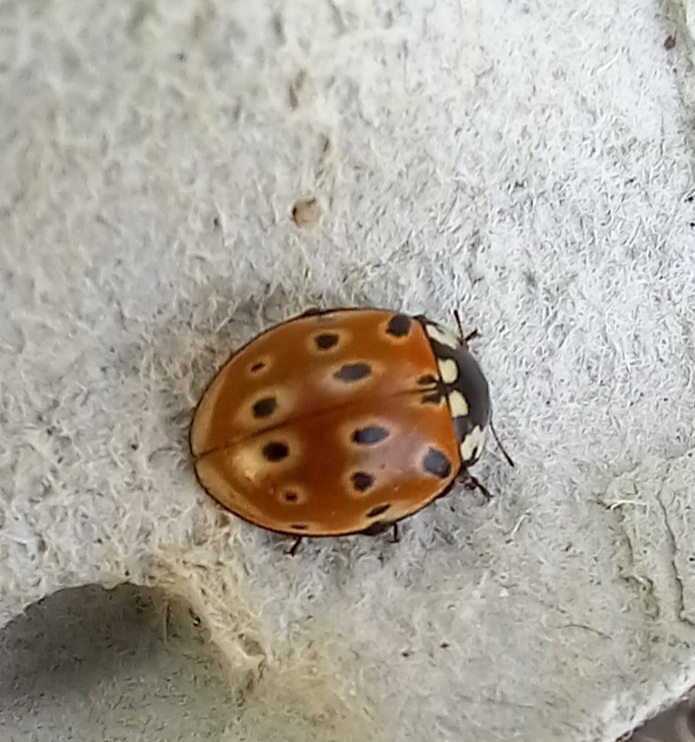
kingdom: Animalia
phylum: Arthropoda
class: Insecta
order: Coleoptera
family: Coccinellidae
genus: Anatis
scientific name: Anatis ocellata
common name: Eyed ladybird
